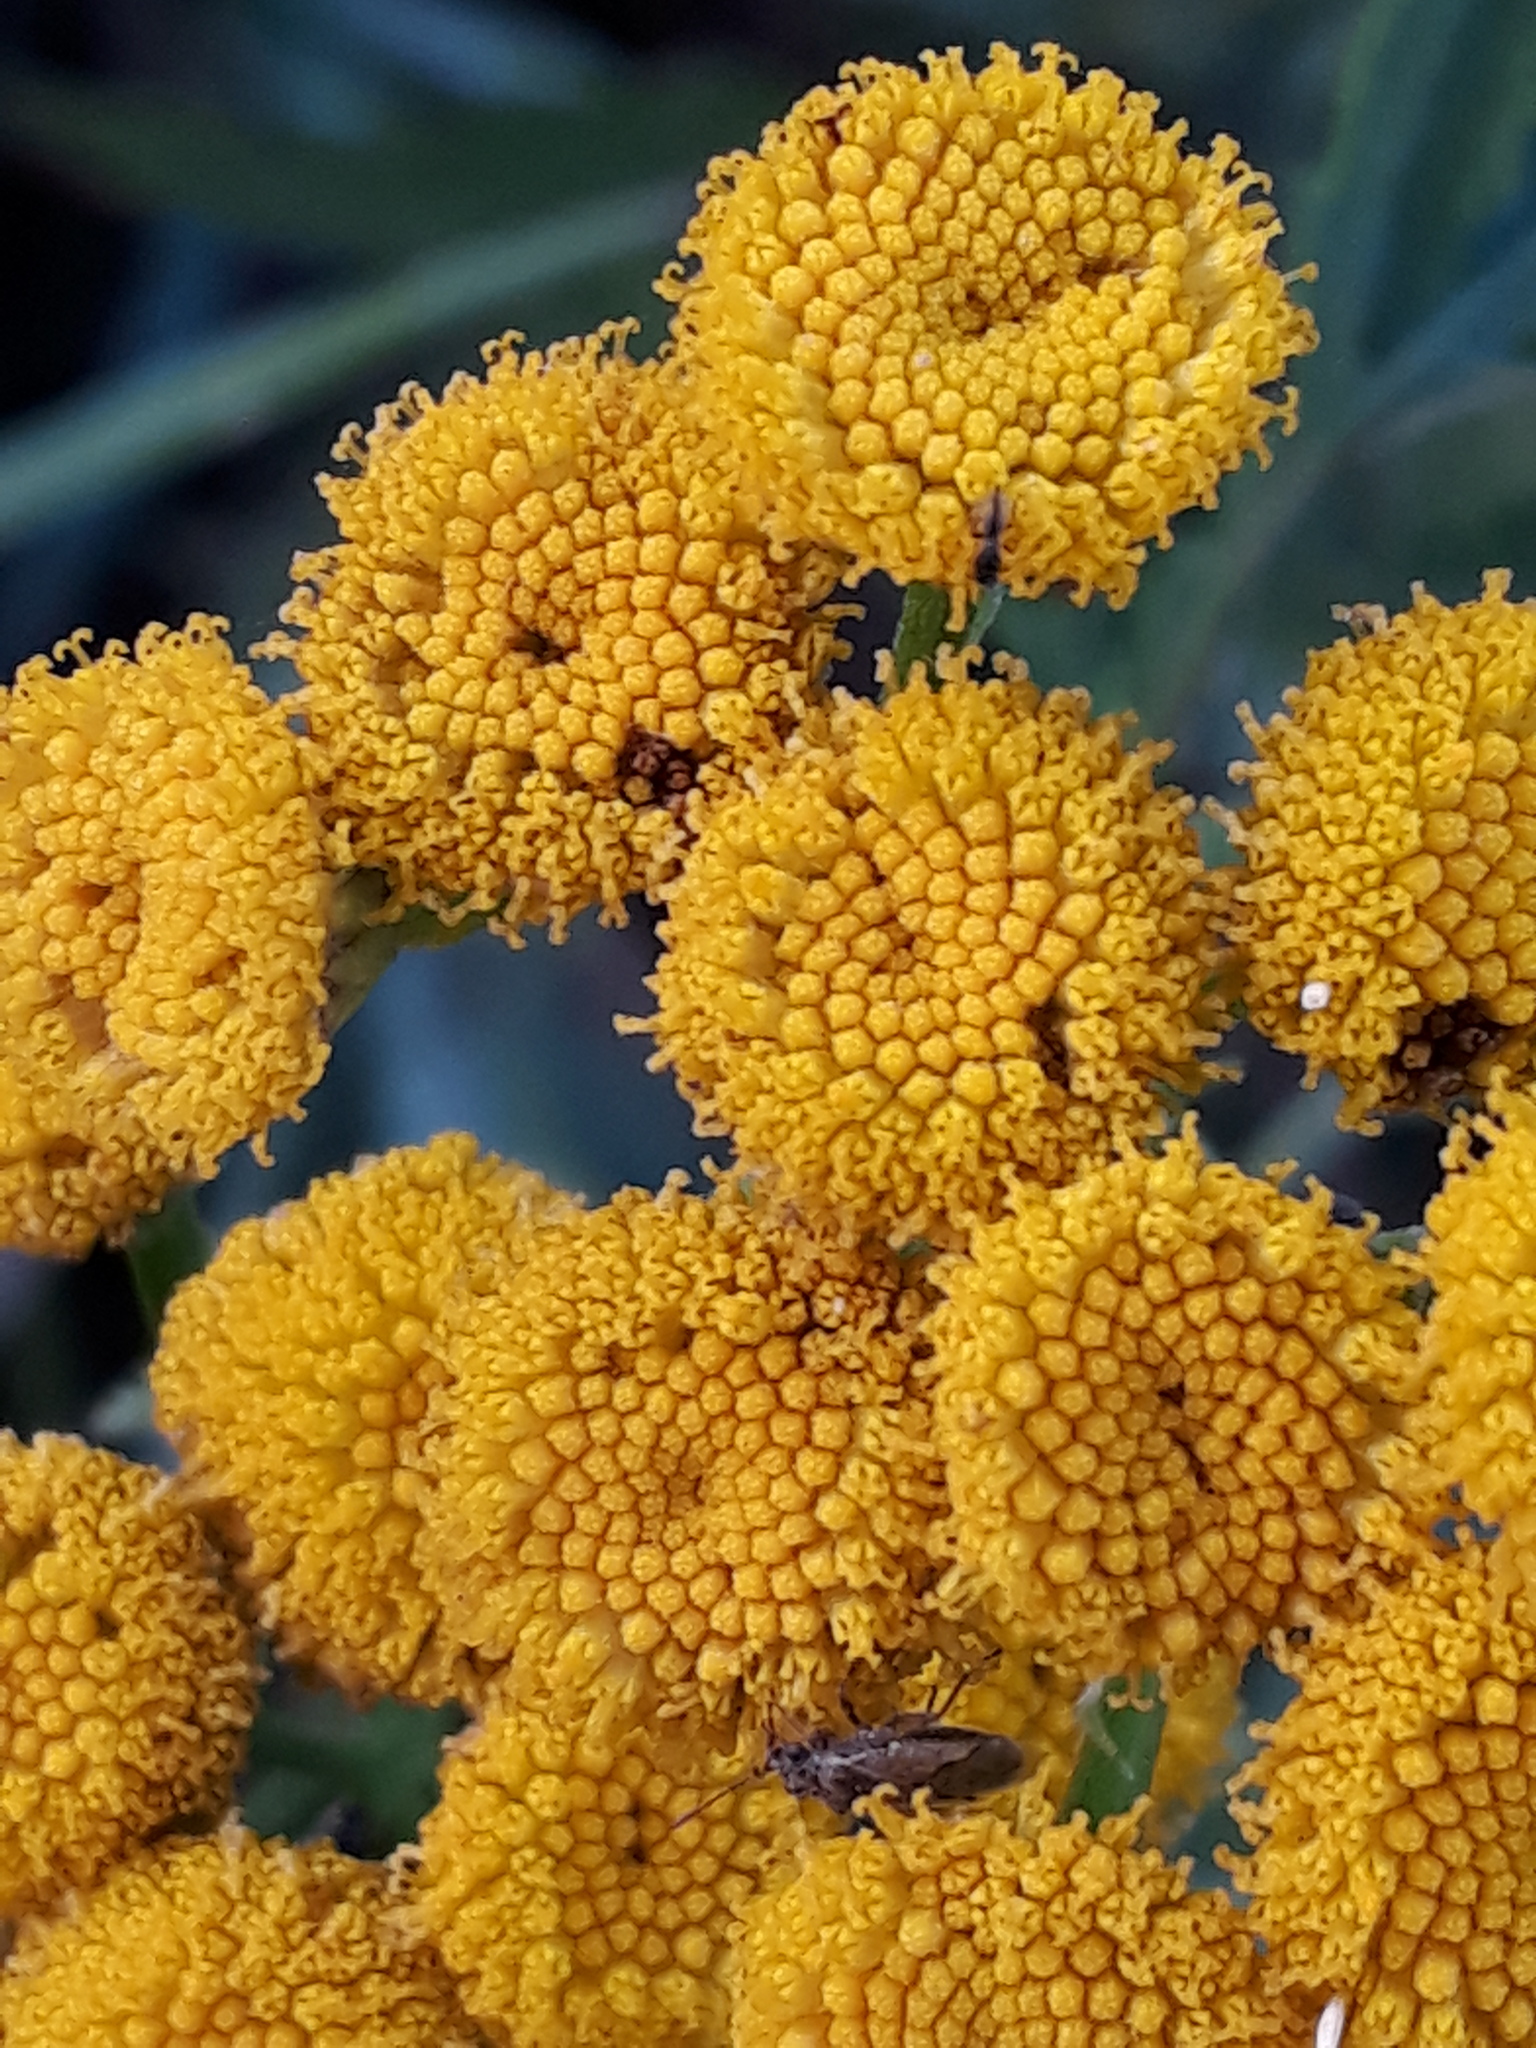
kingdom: Plantae
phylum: Tracheophyta
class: Magnoliopsida
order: Asterales
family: Asteraceae
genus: Tanacetum
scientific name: Tanacetum vulgare
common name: Common tansy
